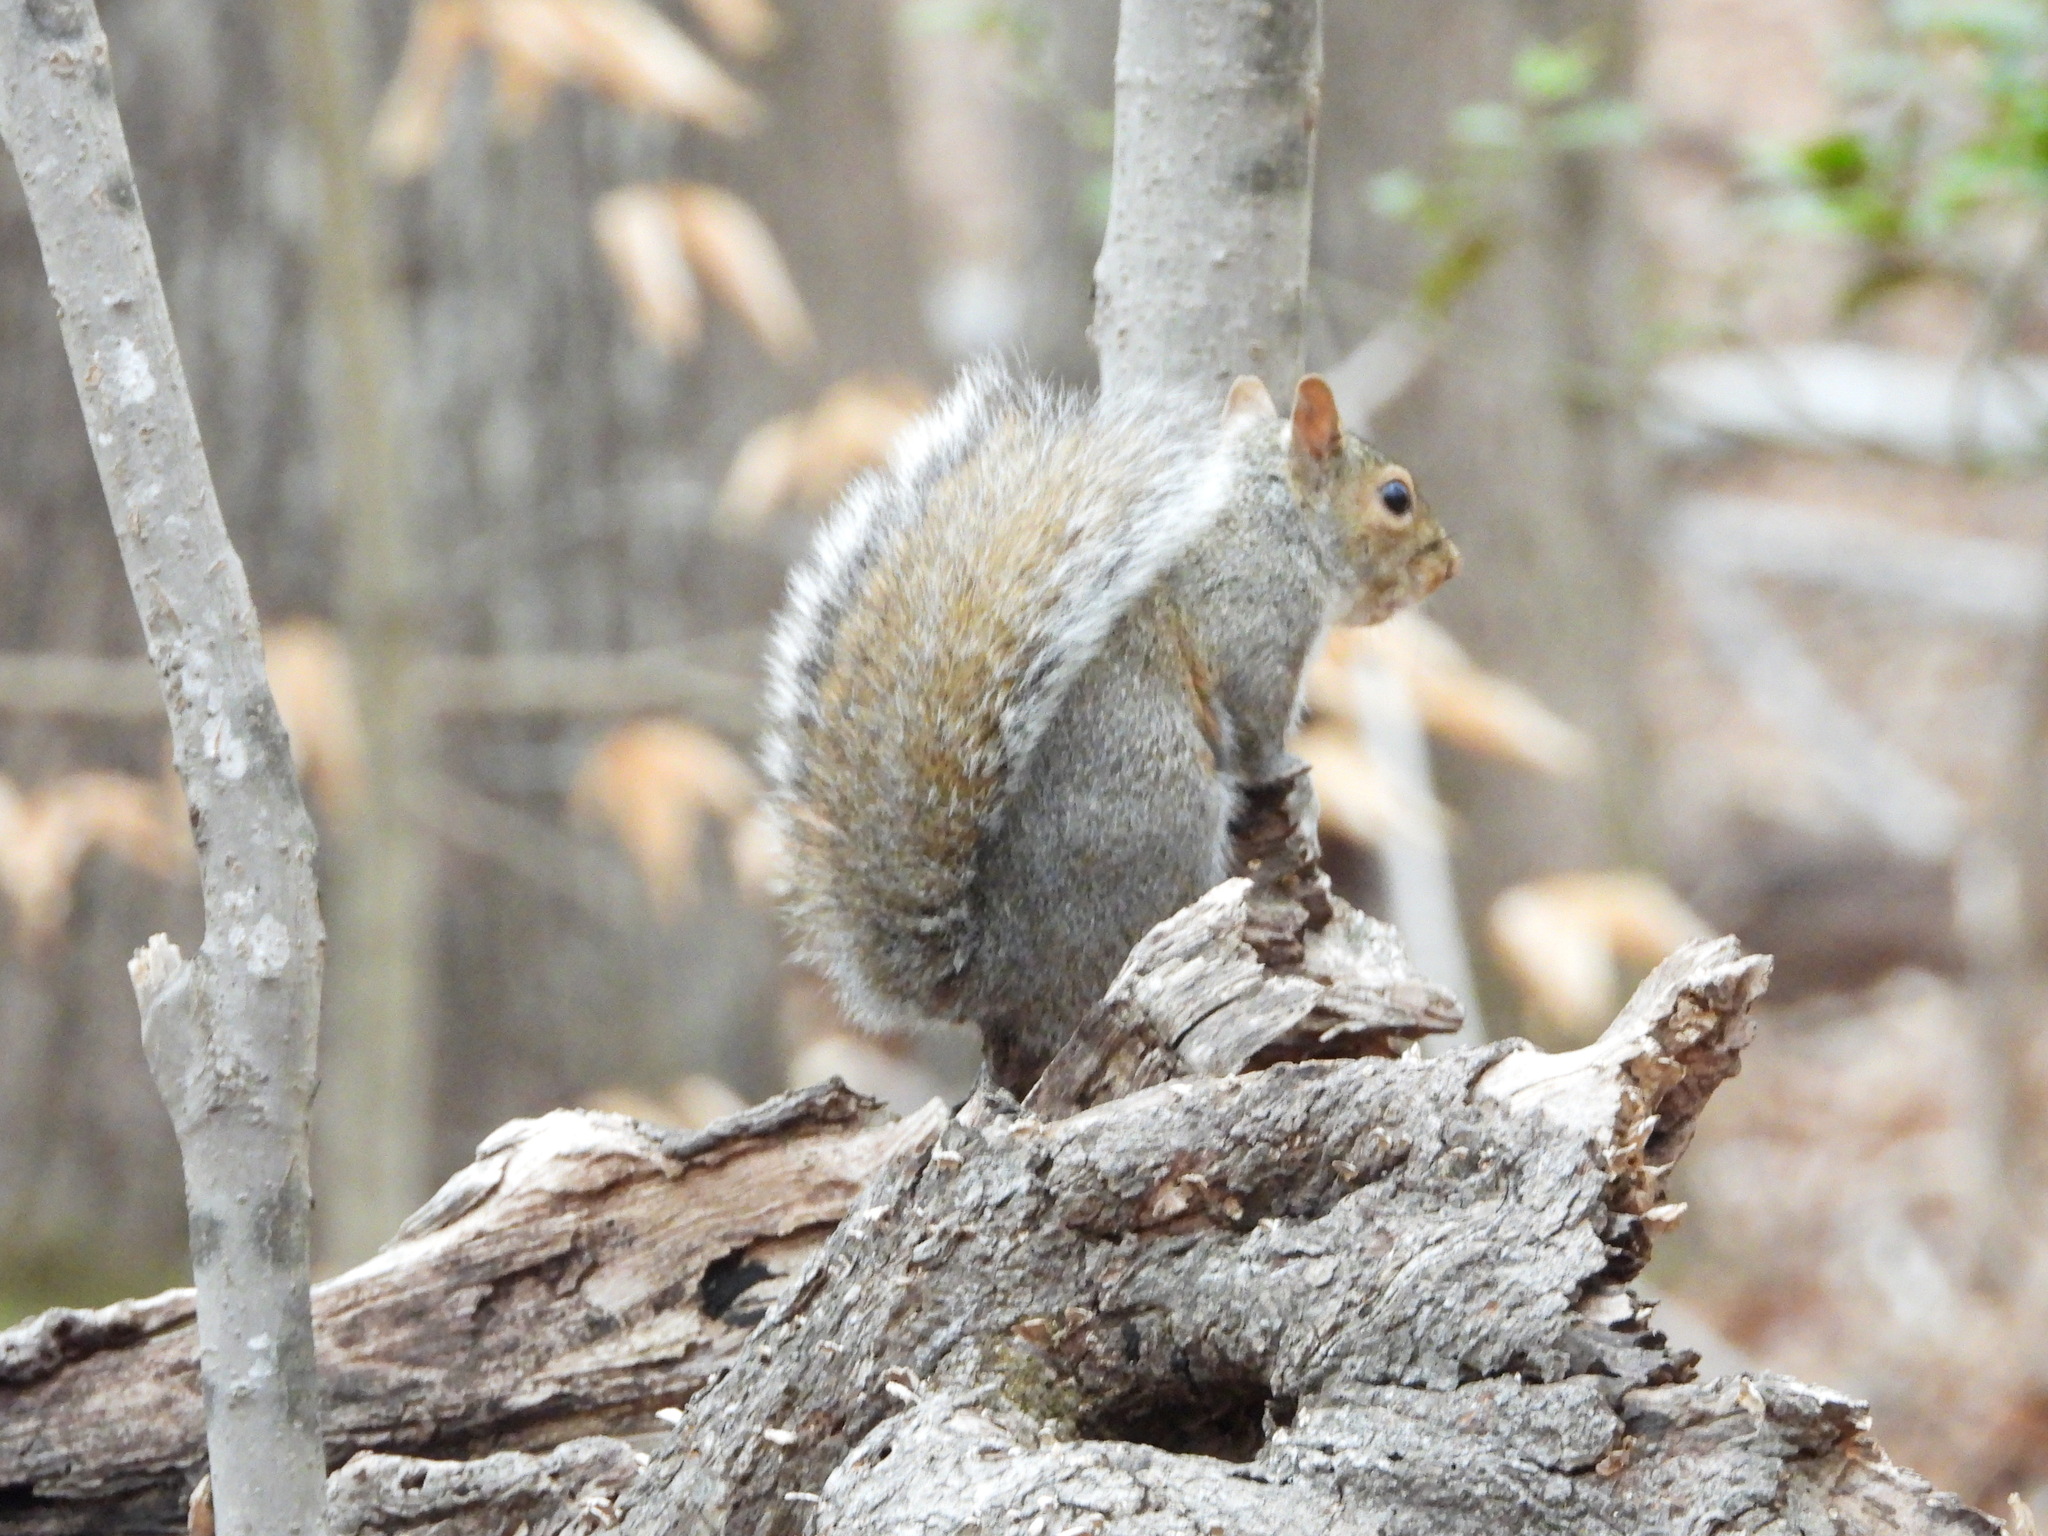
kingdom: Animalia
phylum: Chordata
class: Mammalia
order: Rodentia
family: Sciuridae
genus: Sciurus
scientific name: Sciurus carolinensis
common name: Eastern gray squirrel
